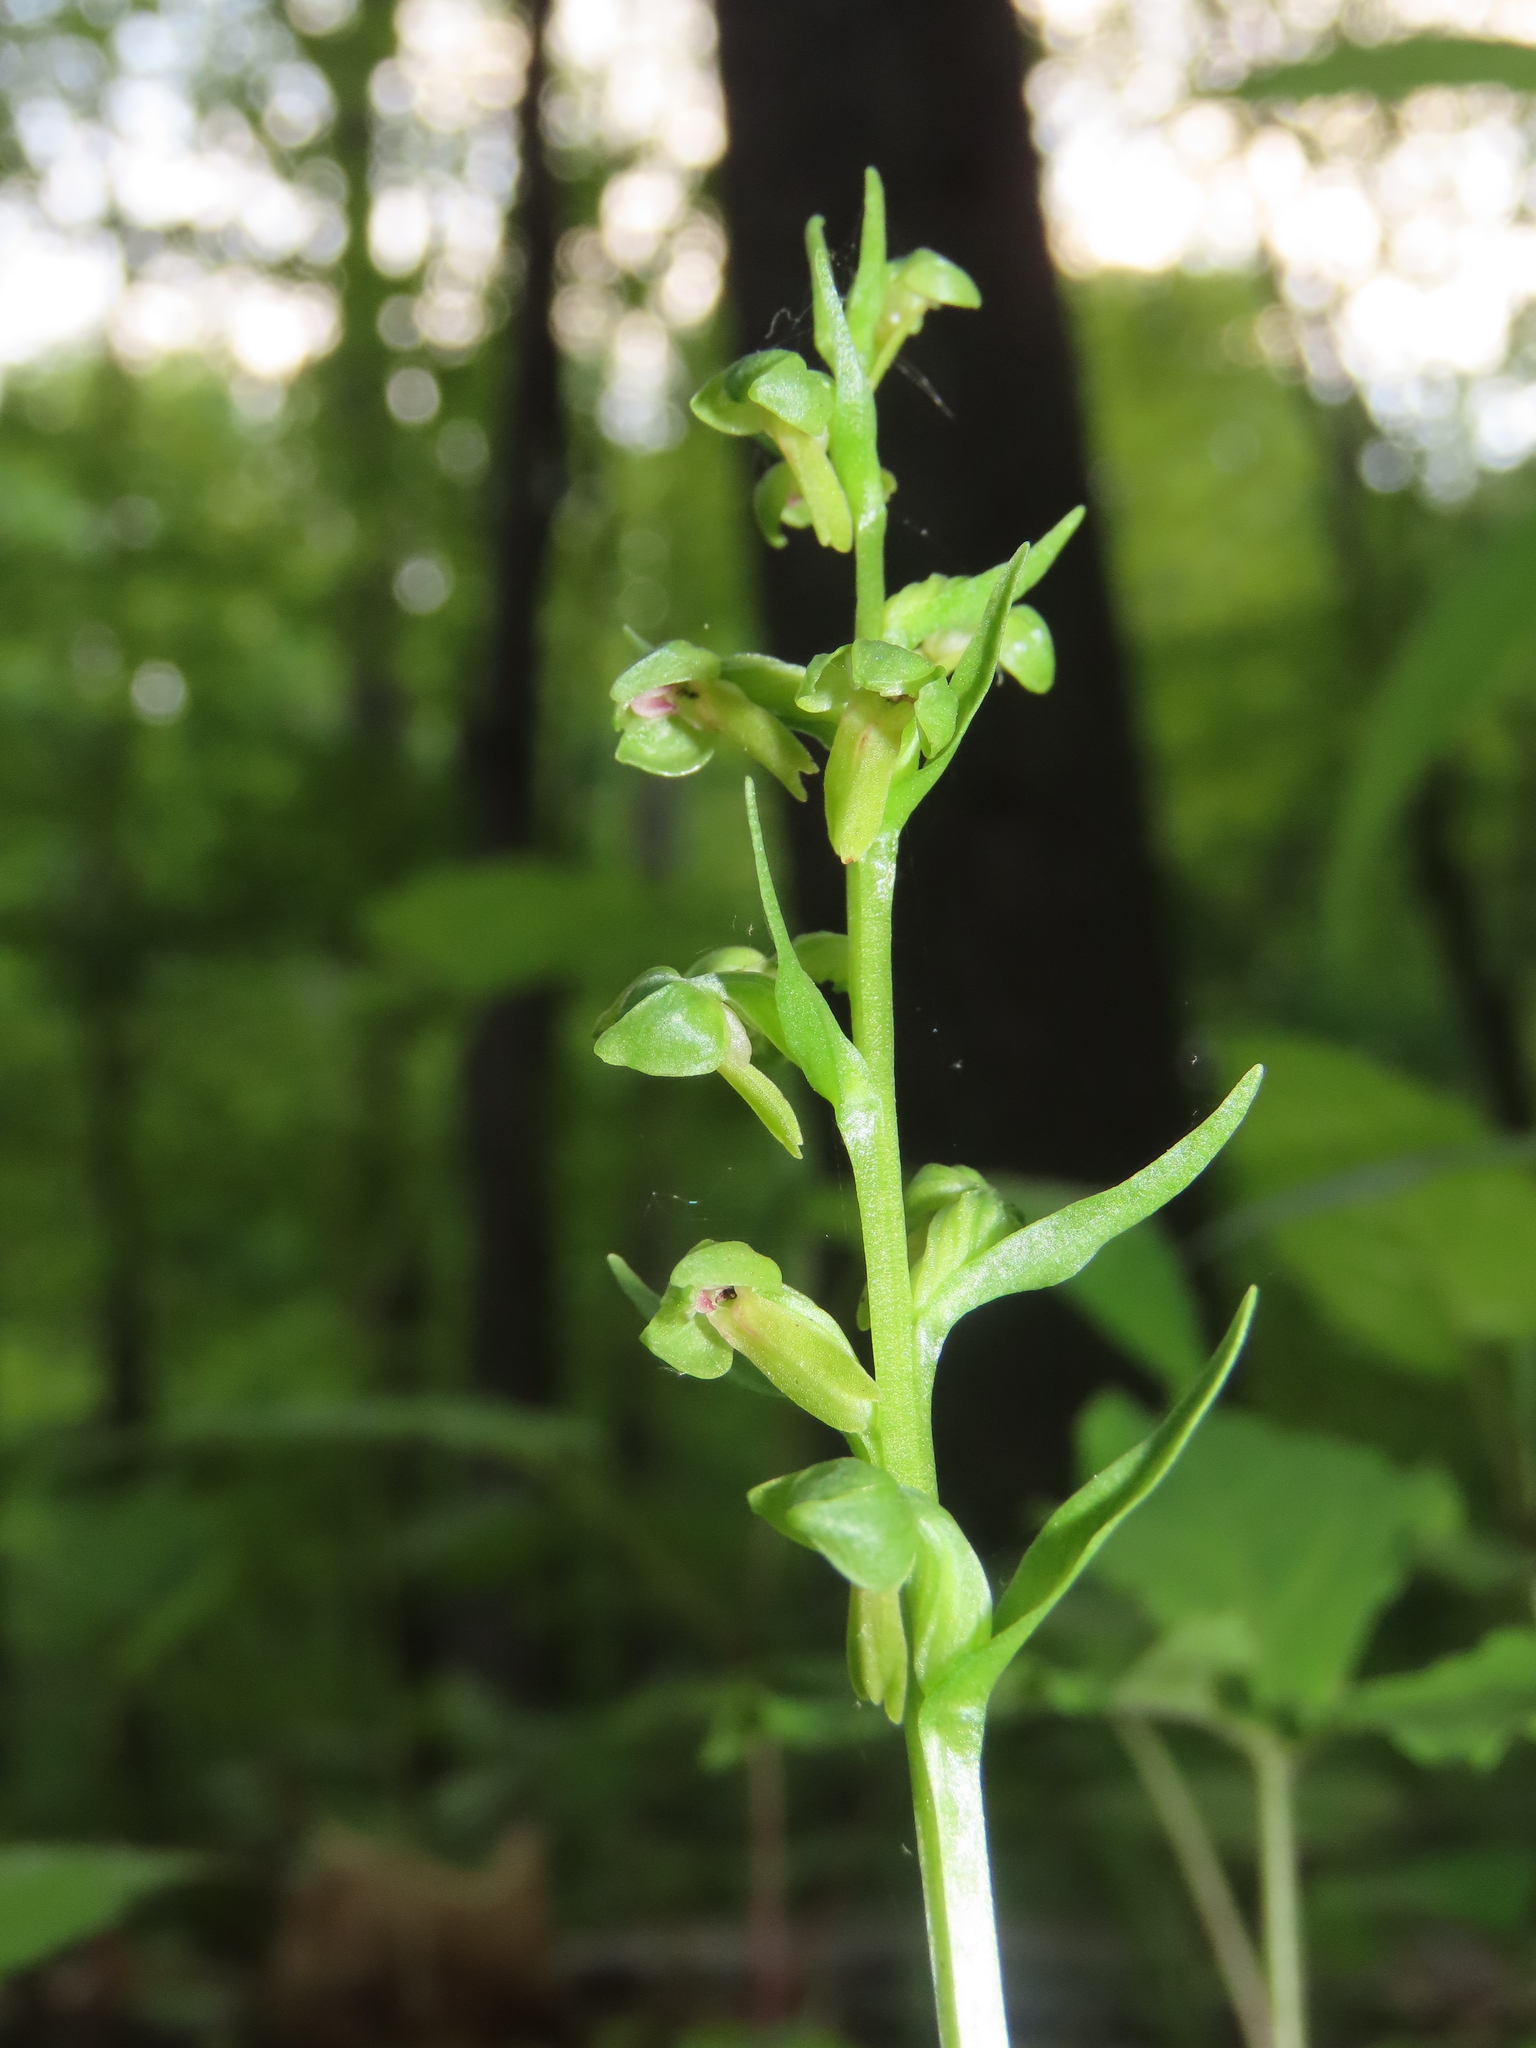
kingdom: Plantae
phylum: Tracheophyta
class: Liliopsida
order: Asparagales
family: Orchidaceae
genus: Dactylorhiza
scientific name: Dactylorhiza viridis
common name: Longbract frog orchid
